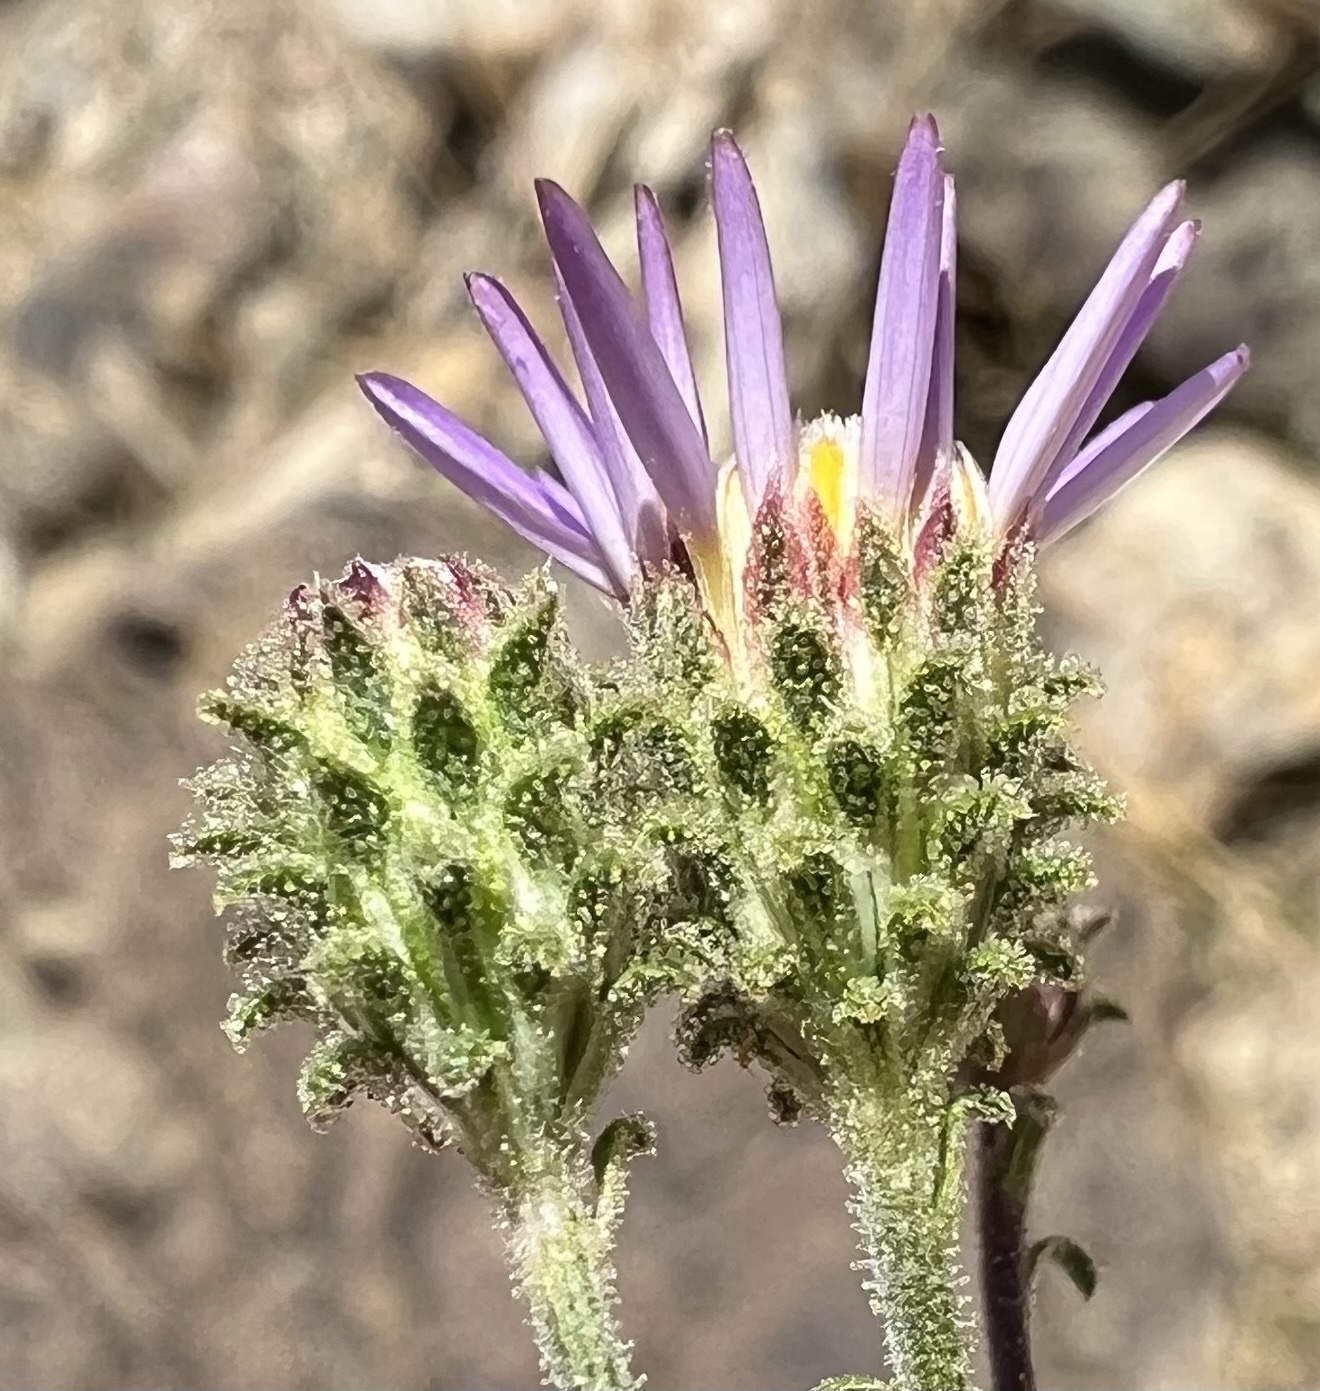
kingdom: Plantae
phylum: Tracheophyta
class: Magnoliopsida
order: Asterales
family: Asteraceae
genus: Dieteria
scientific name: Dieteria canescens
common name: Hoary-aster
